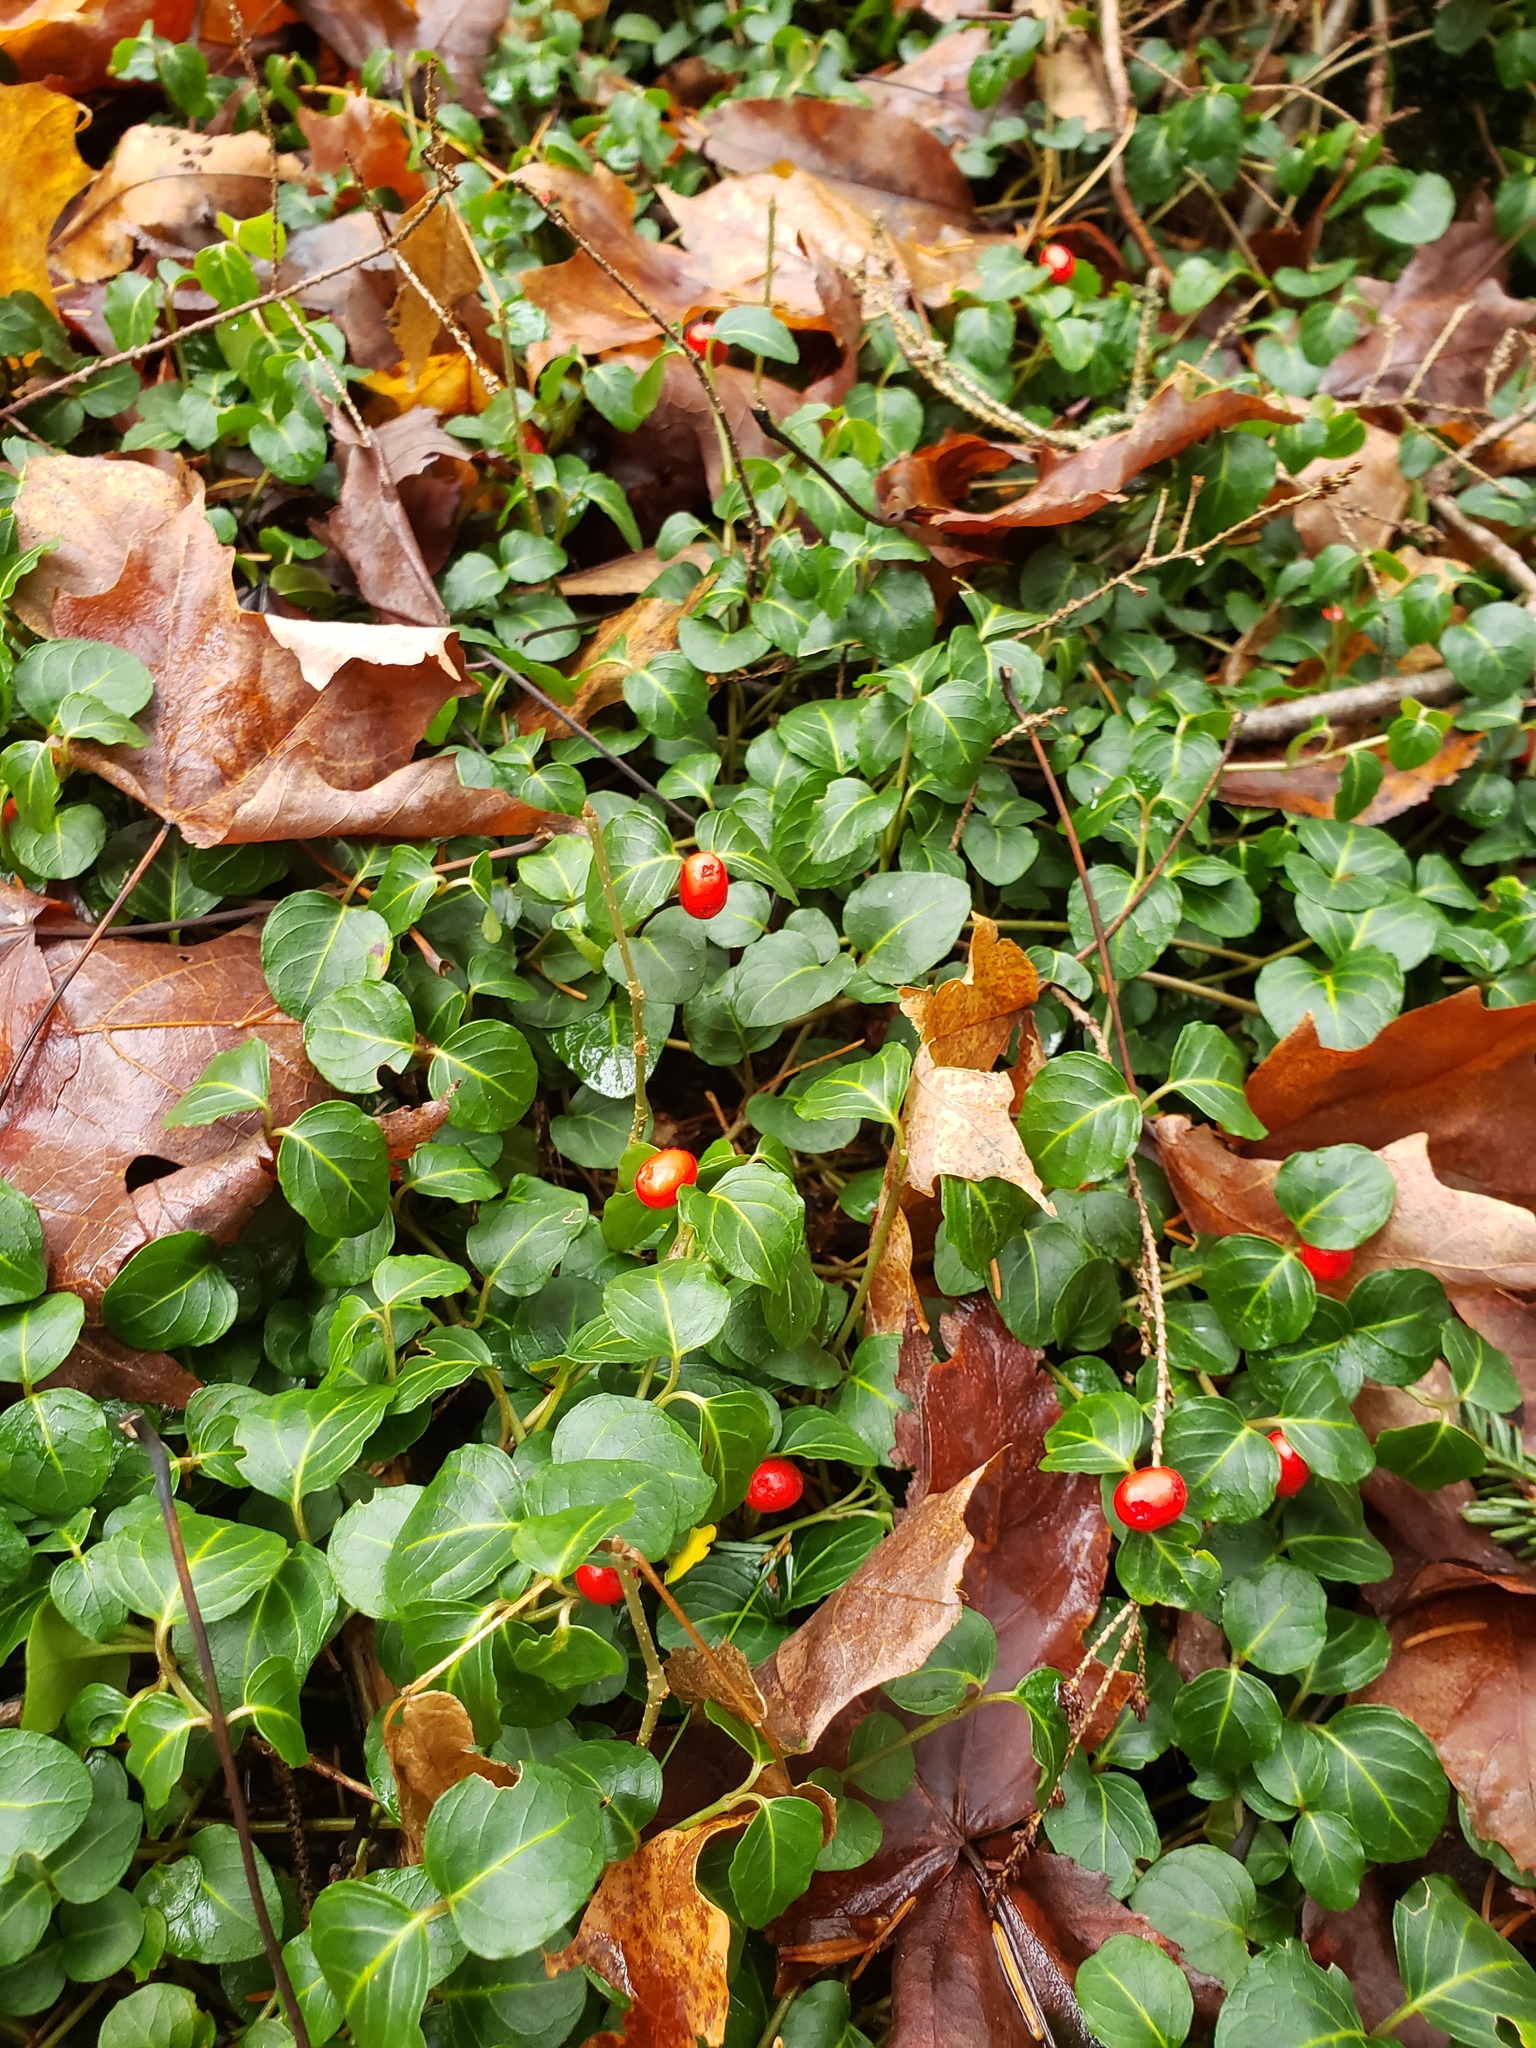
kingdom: Plantae
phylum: Tracheophyta
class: Magnoliopsida
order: Gentianales
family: Rubiaceae
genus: Mitchella
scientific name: Mitchella repens
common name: Partridge-berry
